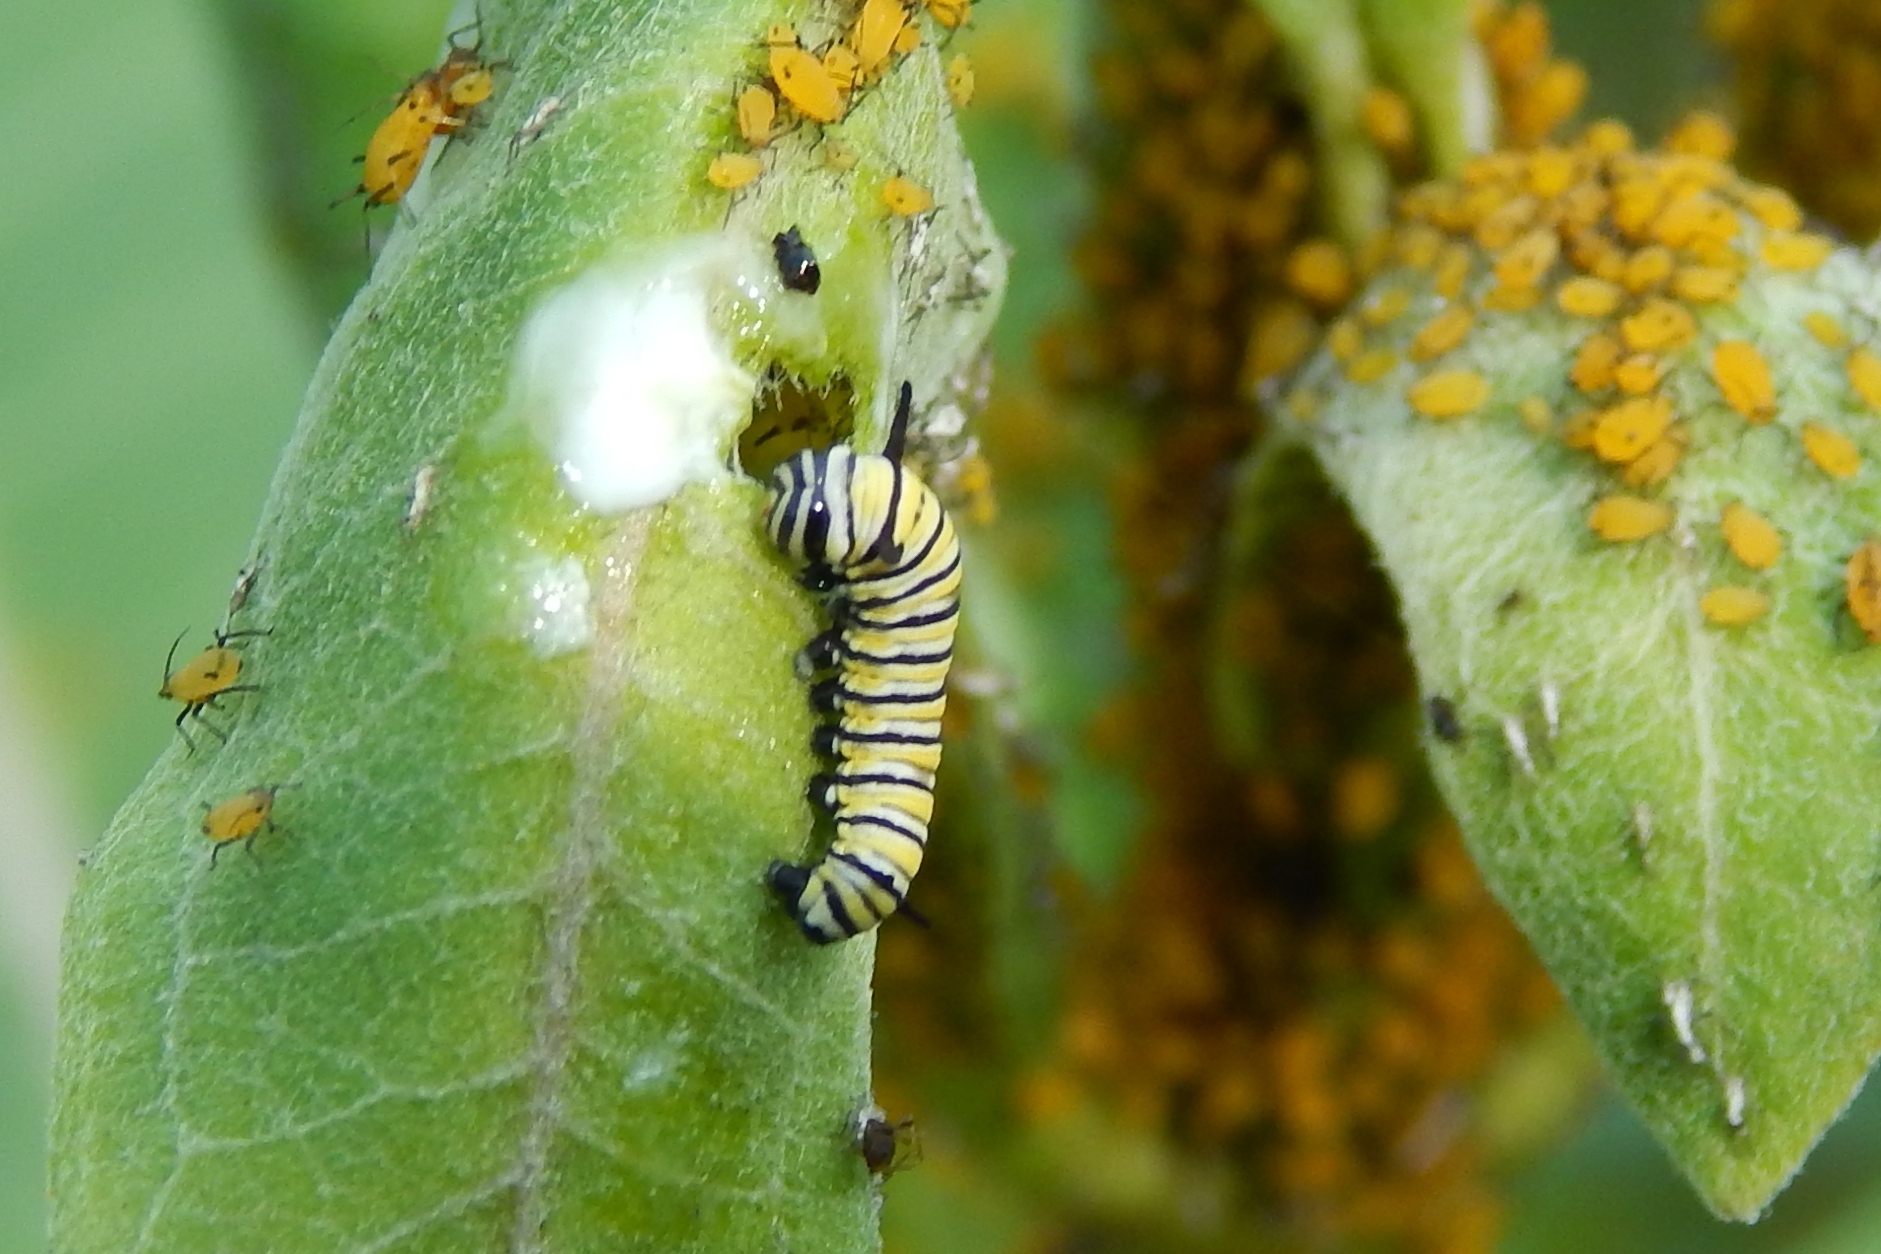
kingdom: Animalia
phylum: Arthropoda
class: Insecta
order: Lepidoptera
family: Nymphalidae
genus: Danaus
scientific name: Danaus plexippus
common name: Monarch
